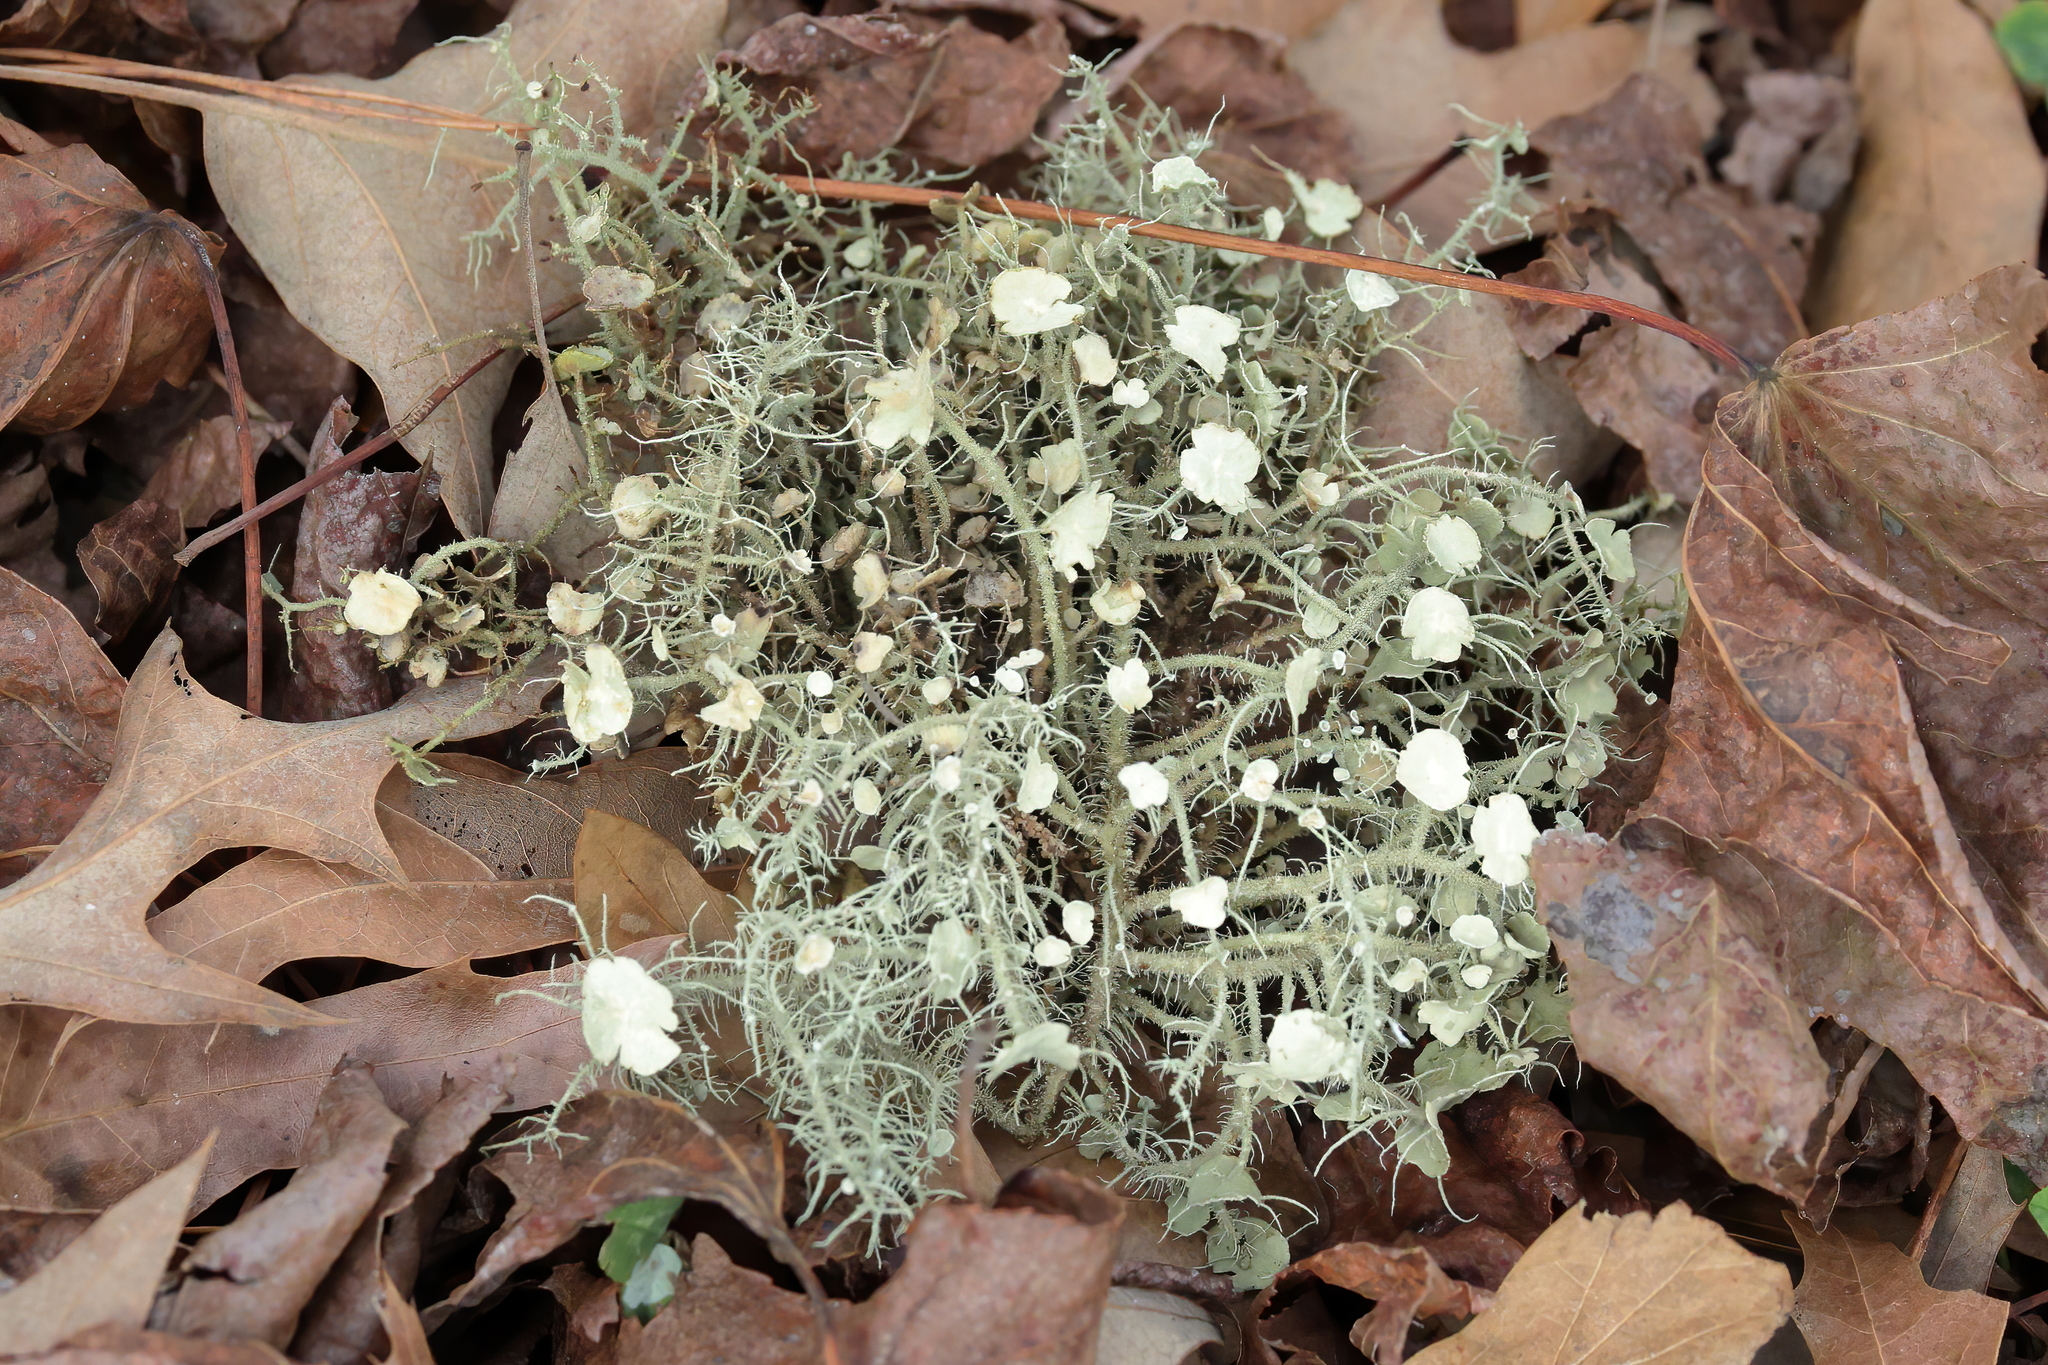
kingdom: Fungi
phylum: Ascomycota
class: Lecanoromycetes
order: Lecanorales
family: Parmeliaceae
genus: Usnea
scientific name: Usnea
